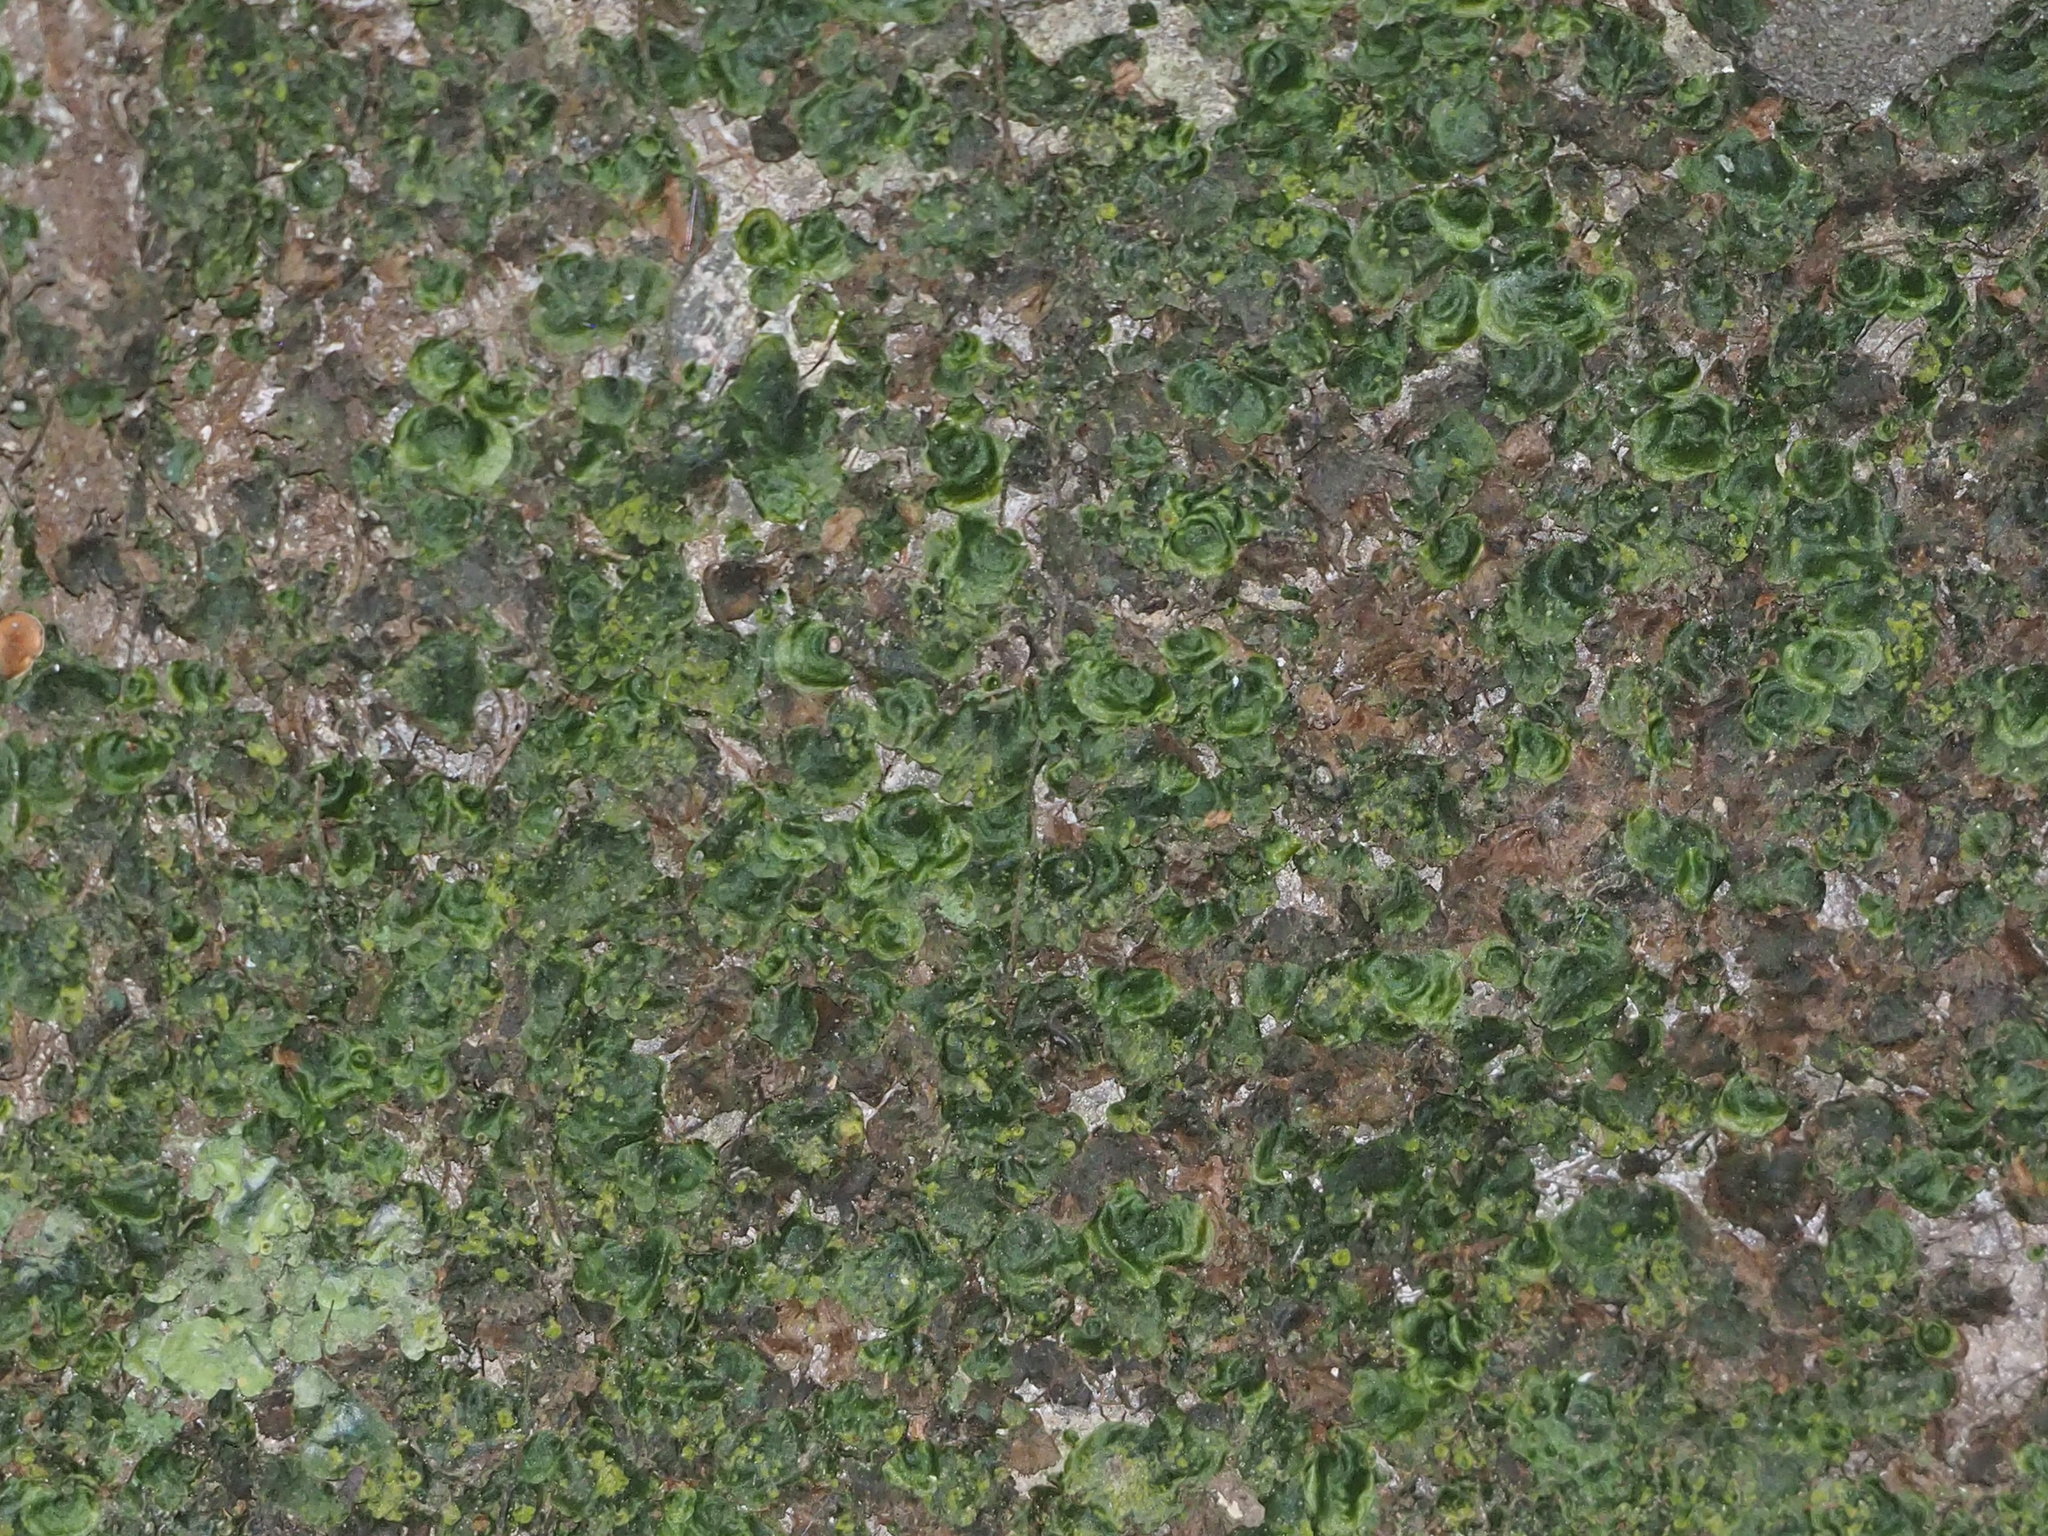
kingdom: Plantae
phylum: Tracheophyta
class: Polypodiopsida
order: Hymenophyllales
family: Hymenophyllaceae
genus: Didymoglossum
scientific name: Didymoglossum tahitense
